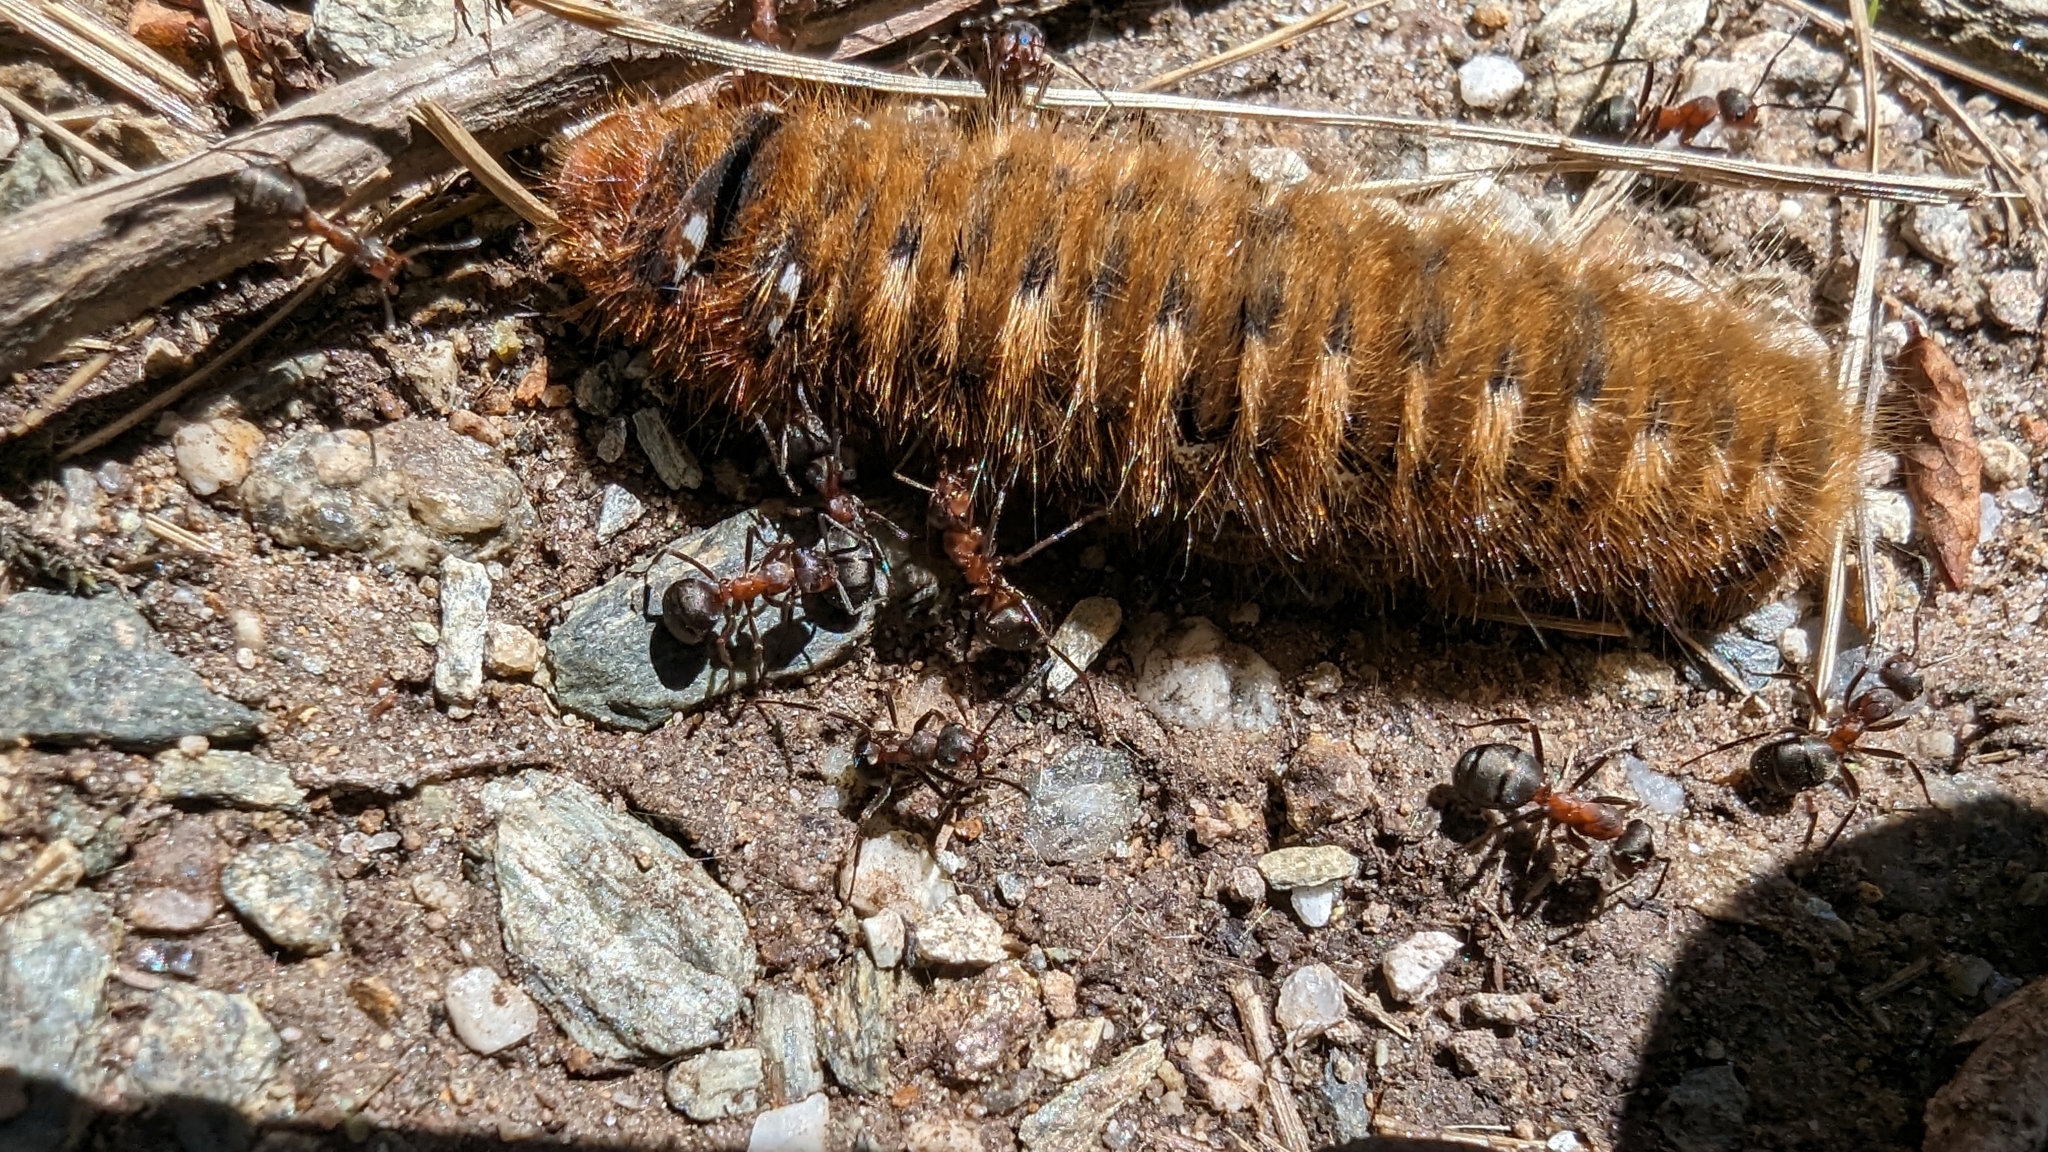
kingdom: Animalia
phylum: Arthropoda
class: Insecta
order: Hymenoptera
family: Formicidae
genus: Formica
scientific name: Formica
